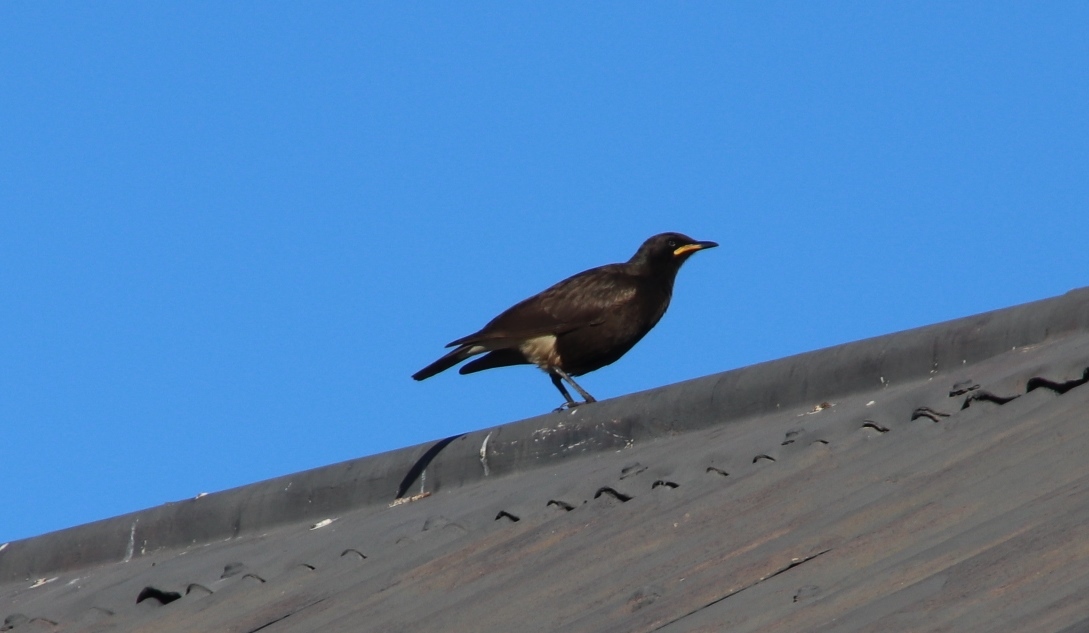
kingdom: Animalia
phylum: Chordata
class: Aves
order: Passeriformes
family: Sturnidae
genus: Lamprotornis
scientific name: Lamprotornis bicolor
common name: Pied starling
